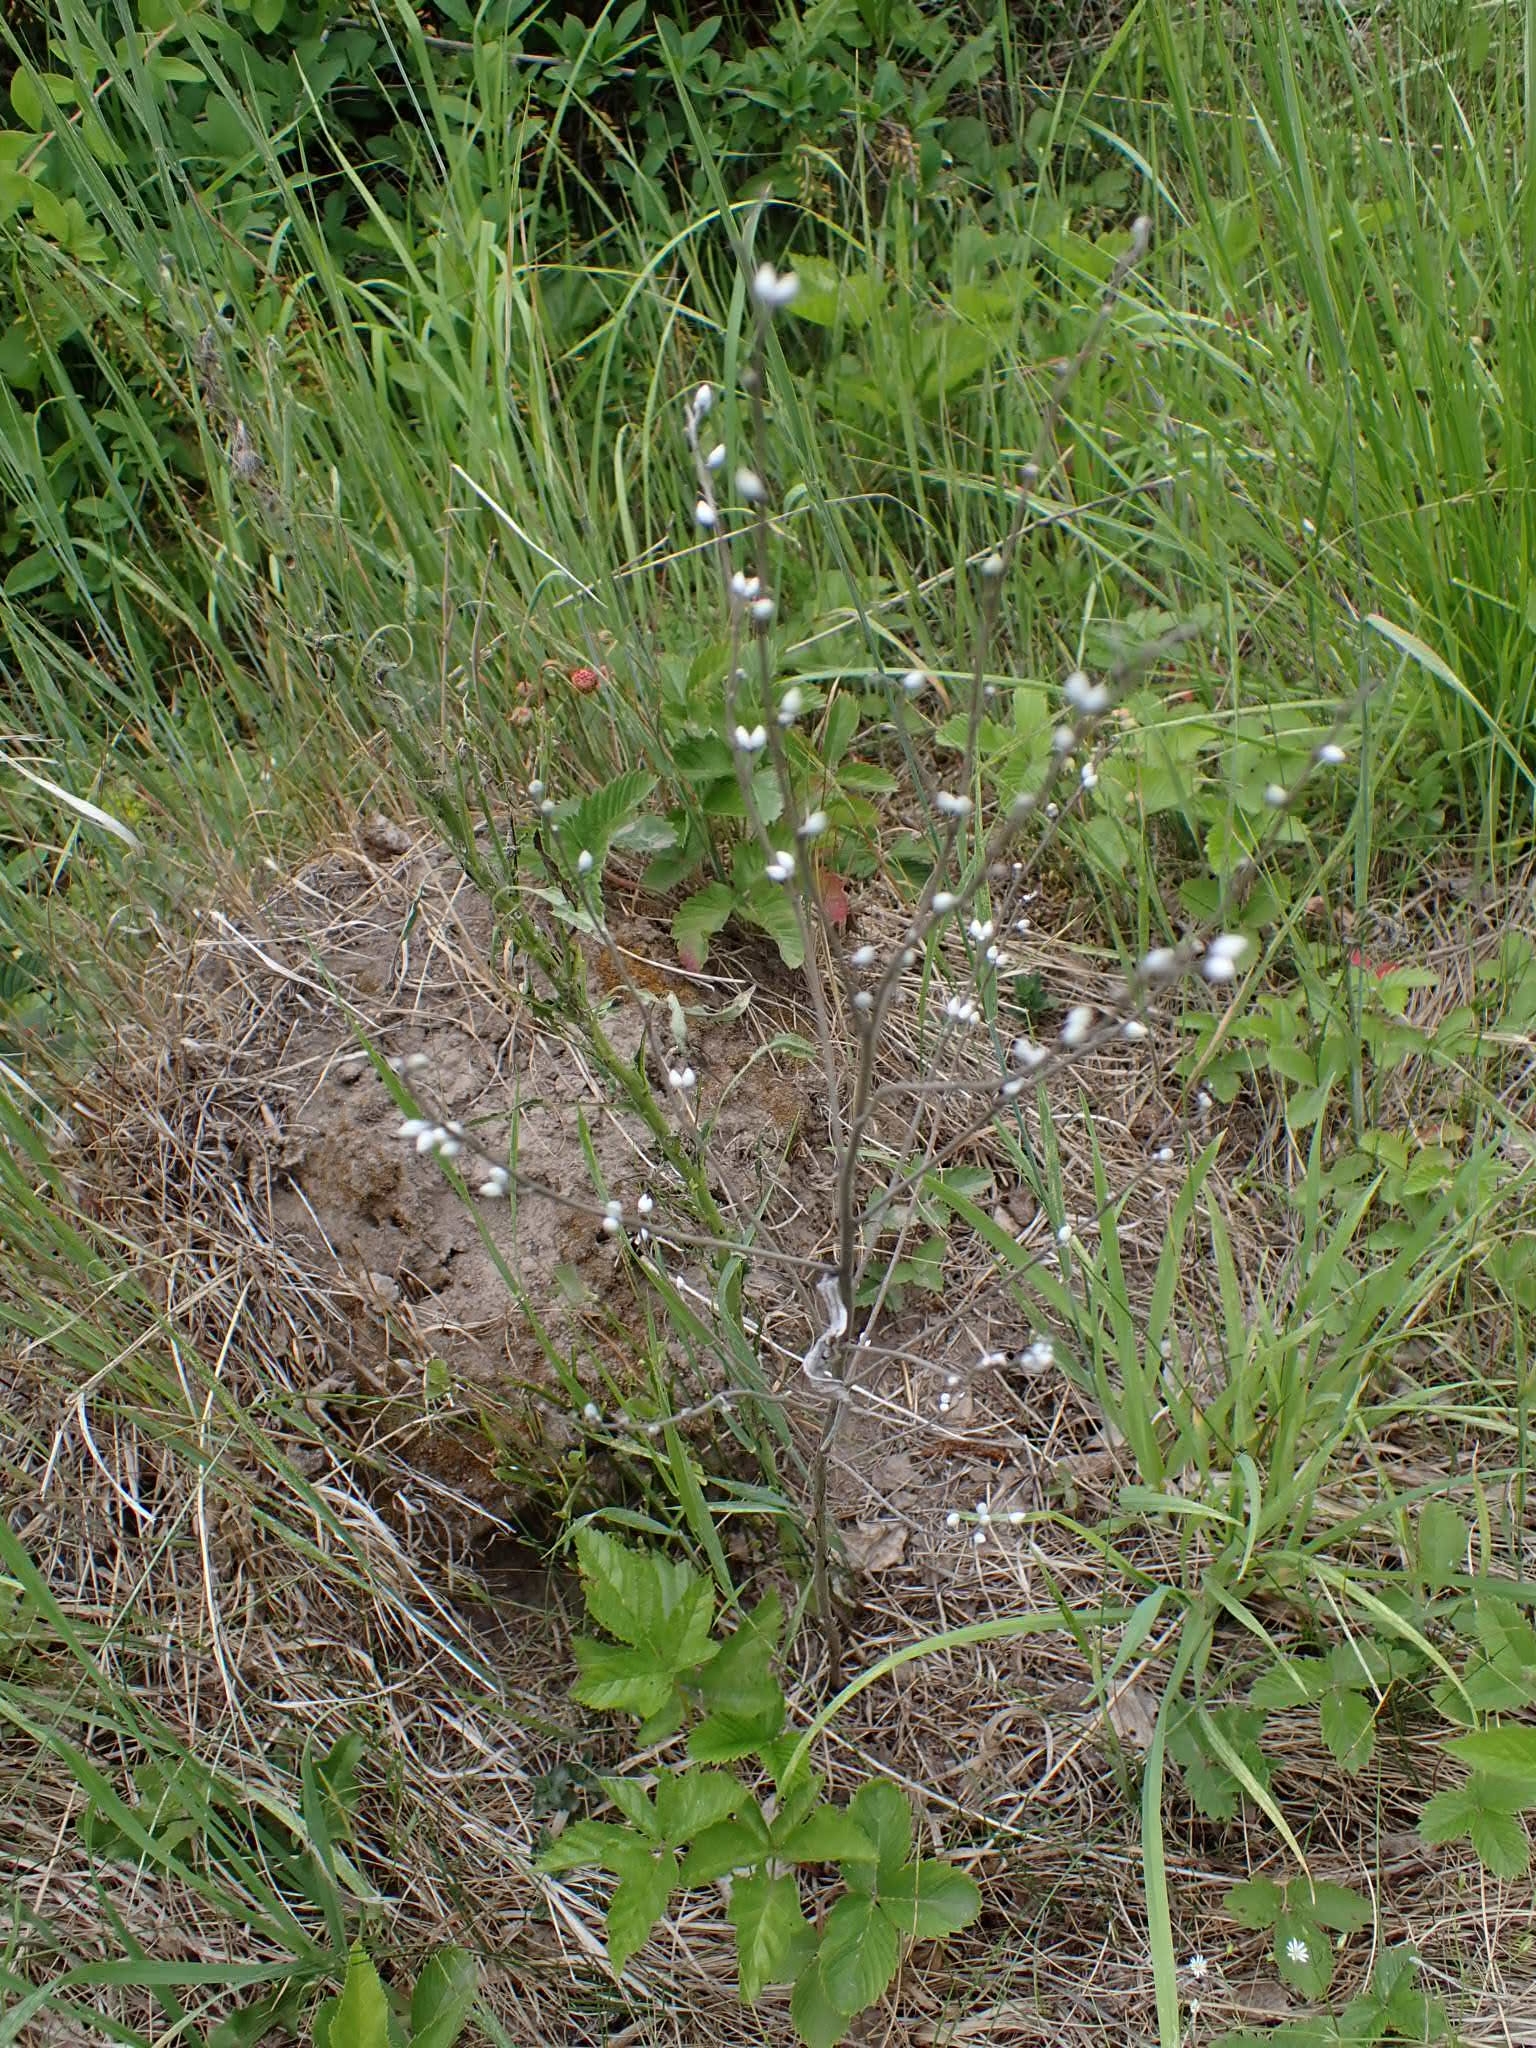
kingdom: Plantae
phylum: Tracheophyta
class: Magnoliopsida
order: Boraginales
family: Boraginaceae
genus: Lithospermum
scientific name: Lithospermum officinale
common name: Common gromwell
